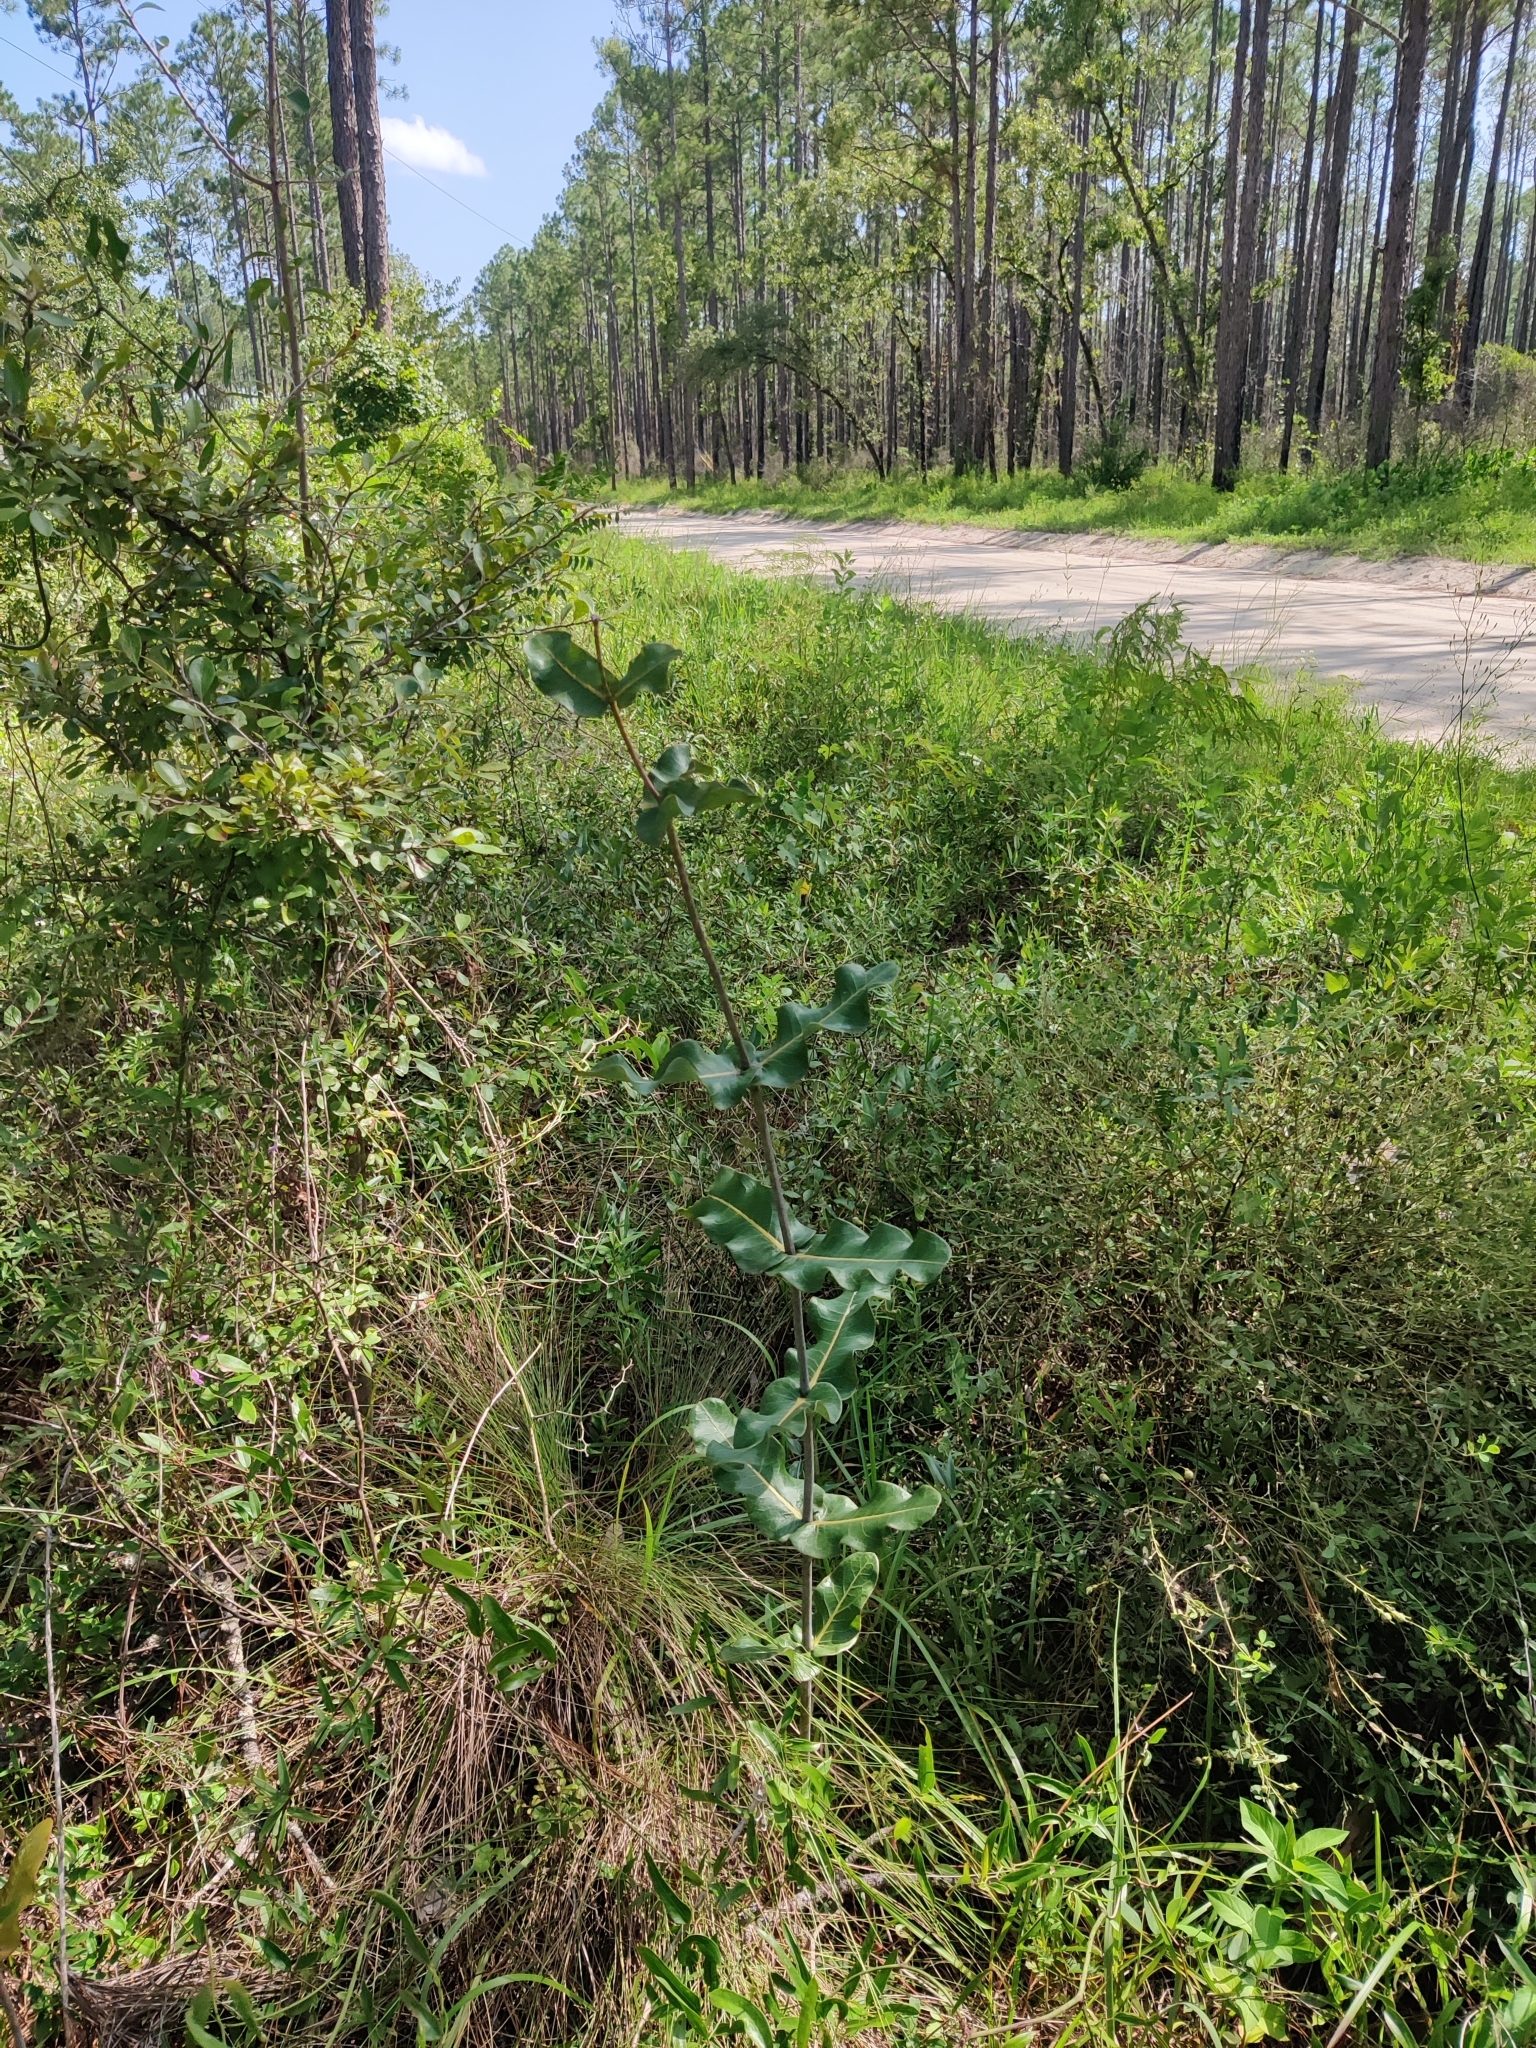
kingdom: Plantae
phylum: Tracheophyta
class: Magnoliopsida
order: Gentianales
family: Apocynaceae
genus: Asclepias
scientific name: Asclepias amplexicaulis
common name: Blunt-leaf milkweed
